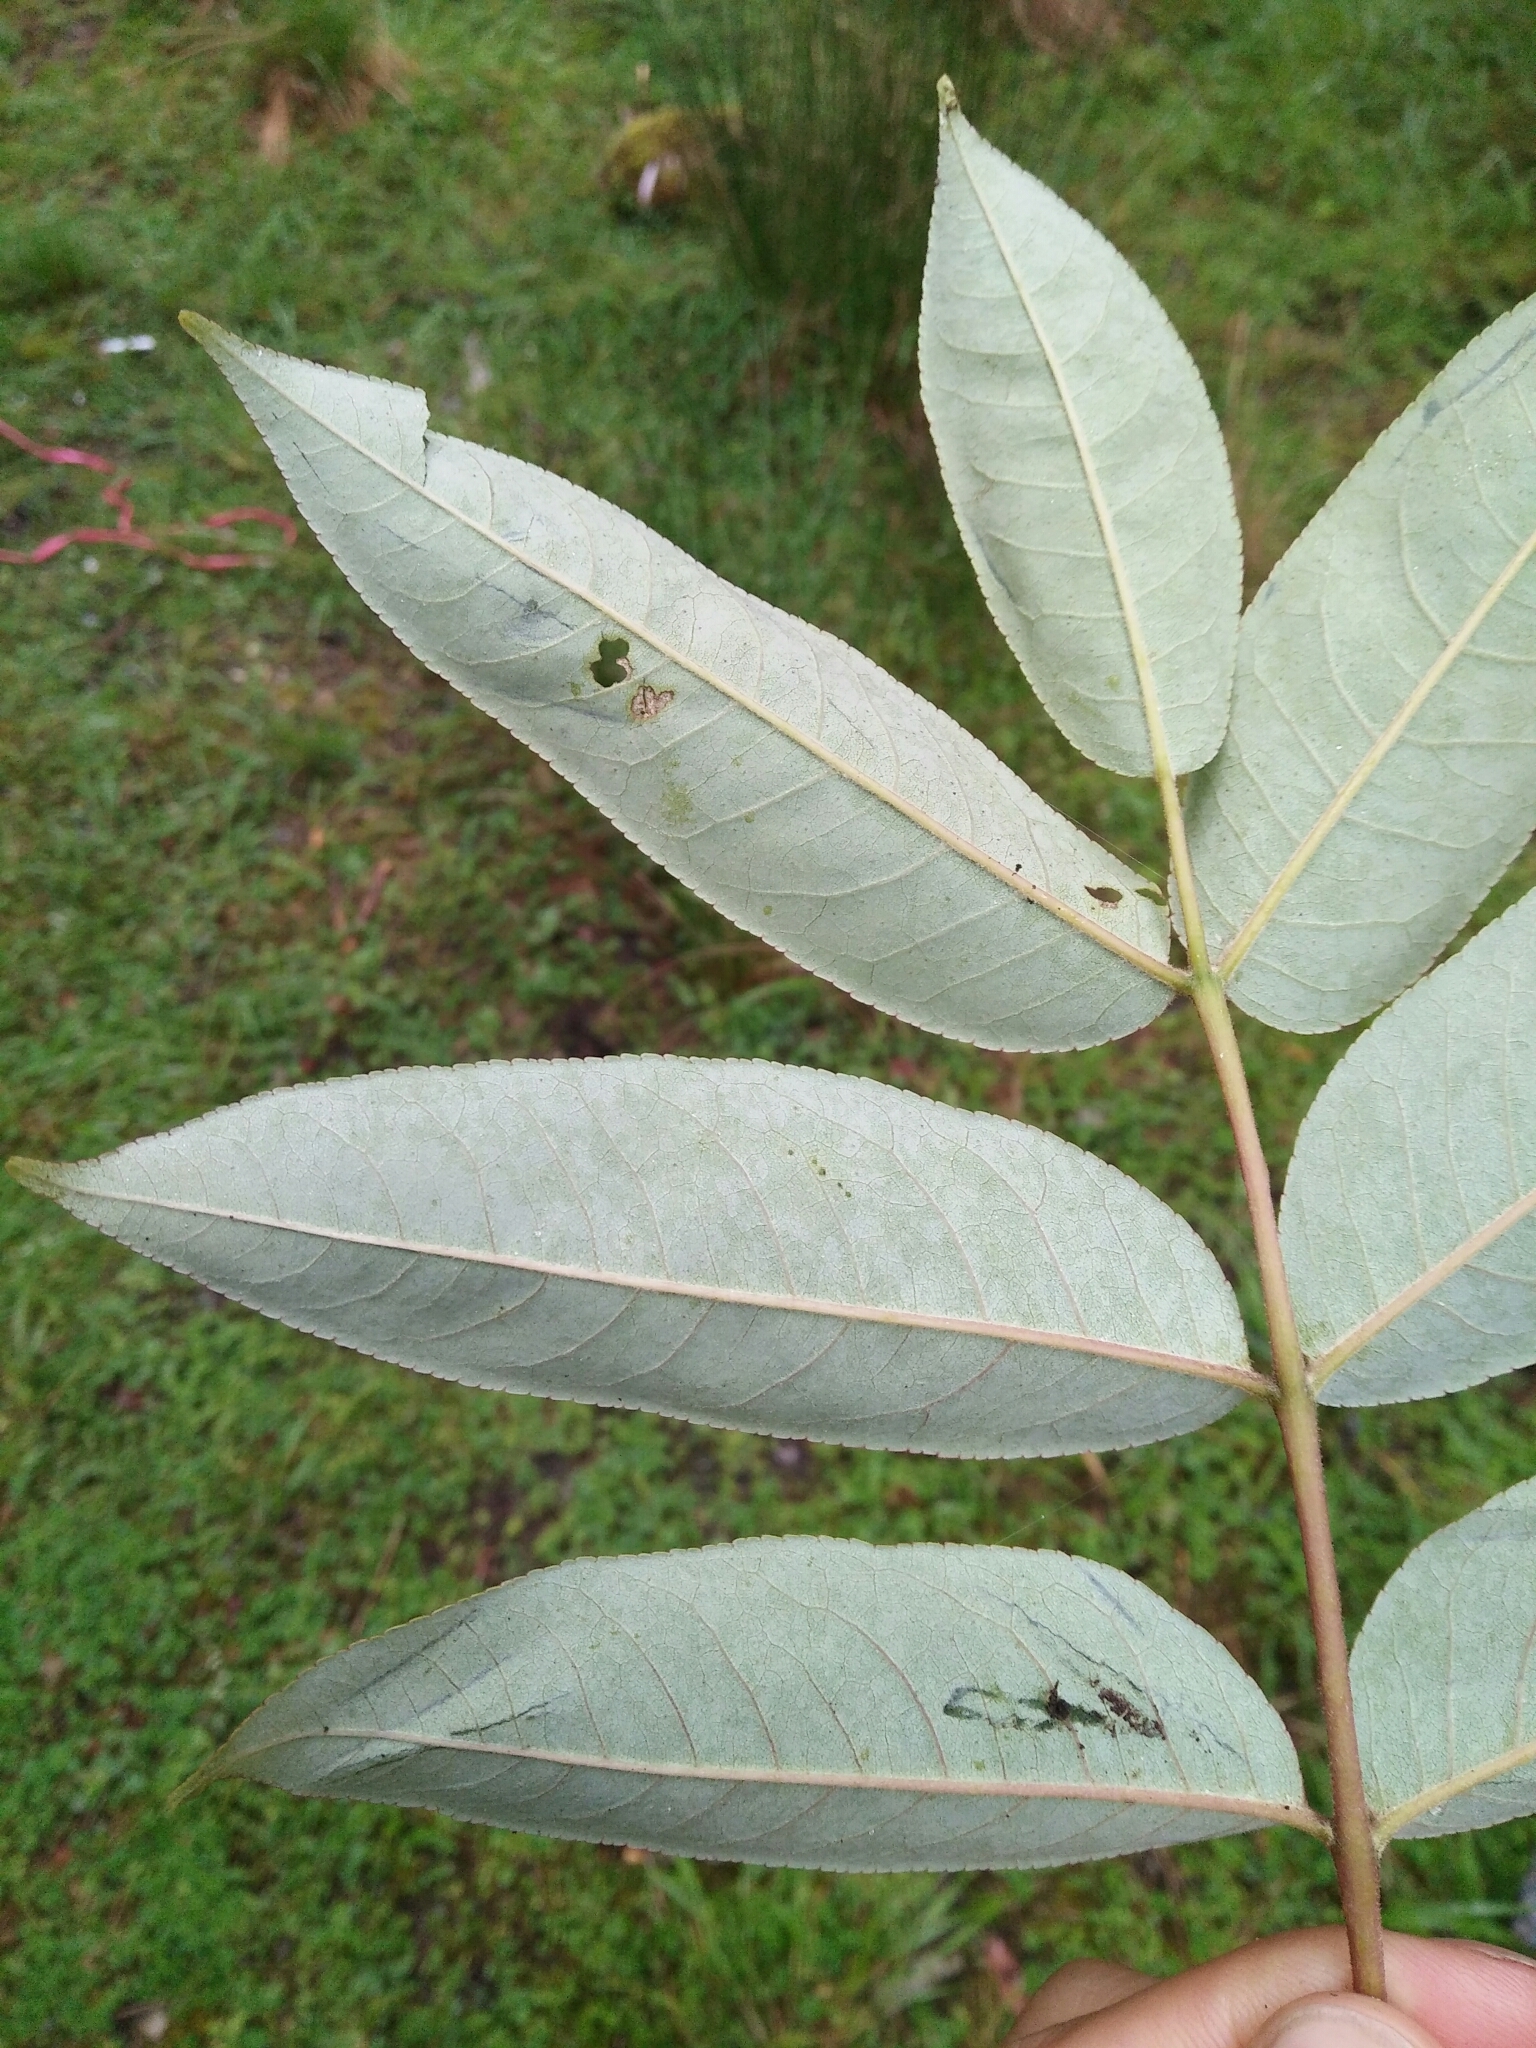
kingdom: Plantae
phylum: Tracheophyta
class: Magnoliopsida
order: Sapindales
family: Rutaceae
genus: Zanthoxylum
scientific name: Zanthoxylum ailanthoides
